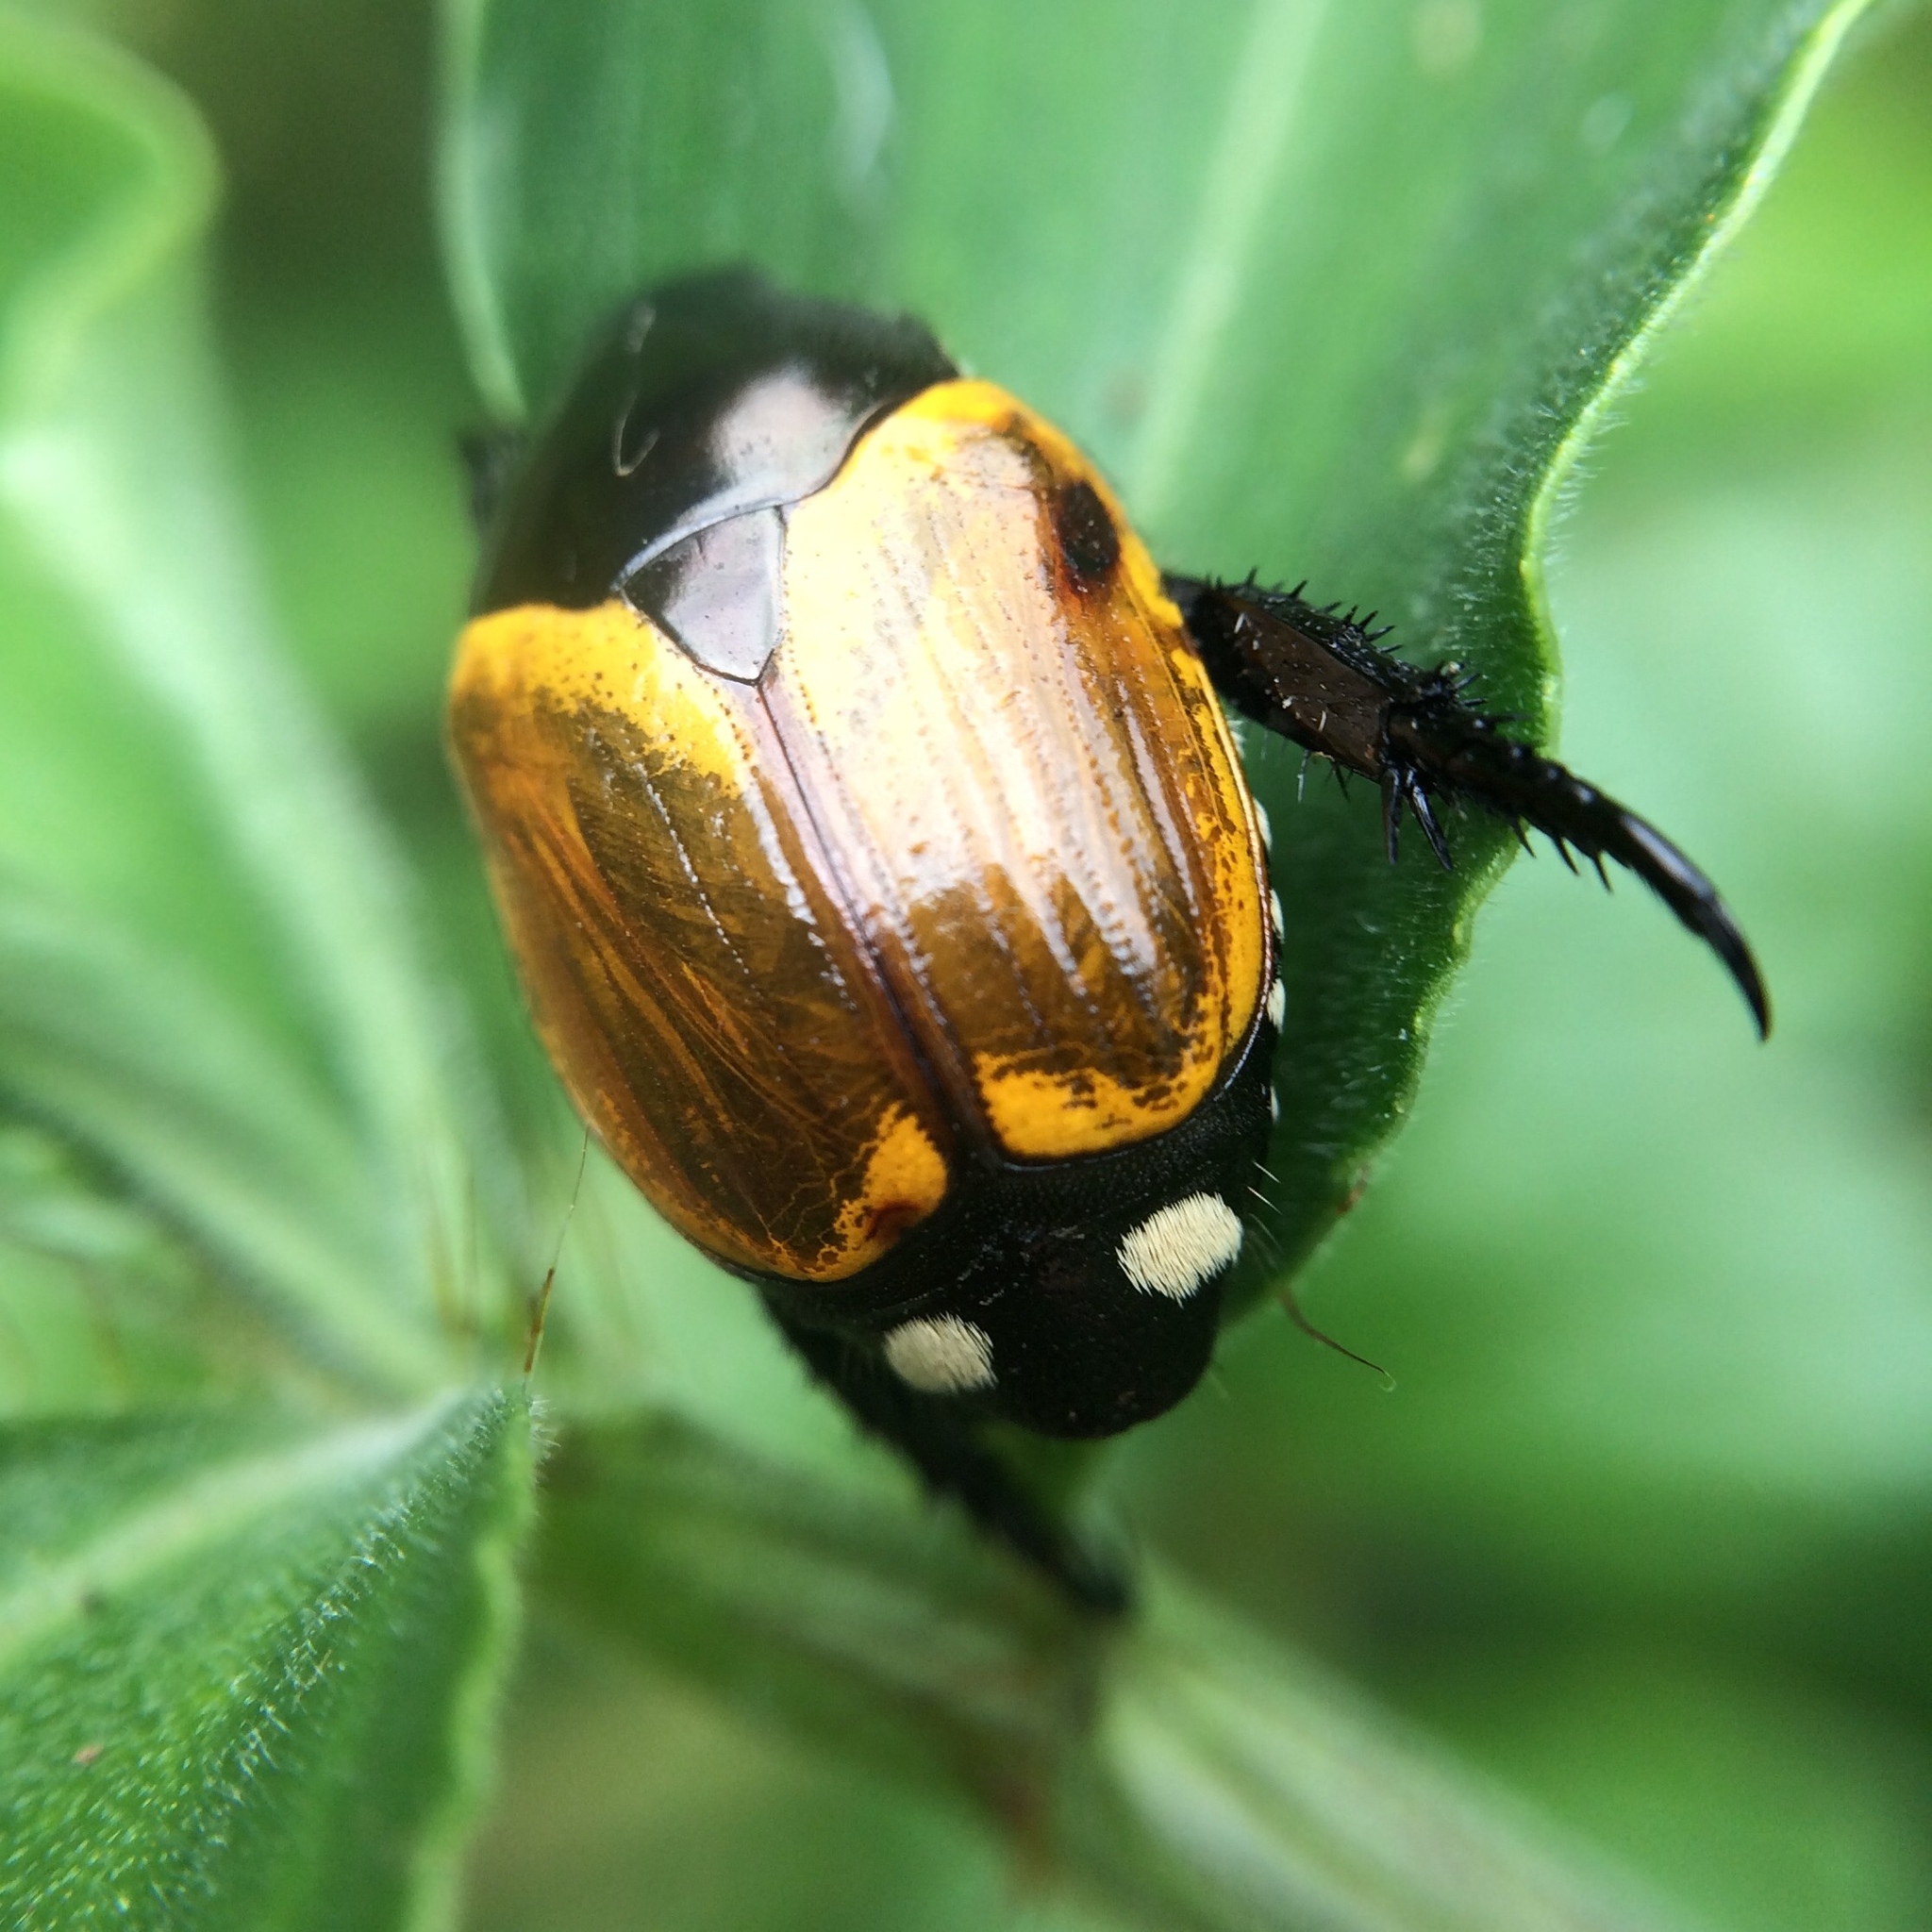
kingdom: Animalia
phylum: Arthropoda
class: Insecta
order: Coleoptera
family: Scarabaeidae
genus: Popillia
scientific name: Popillia bipunctata
